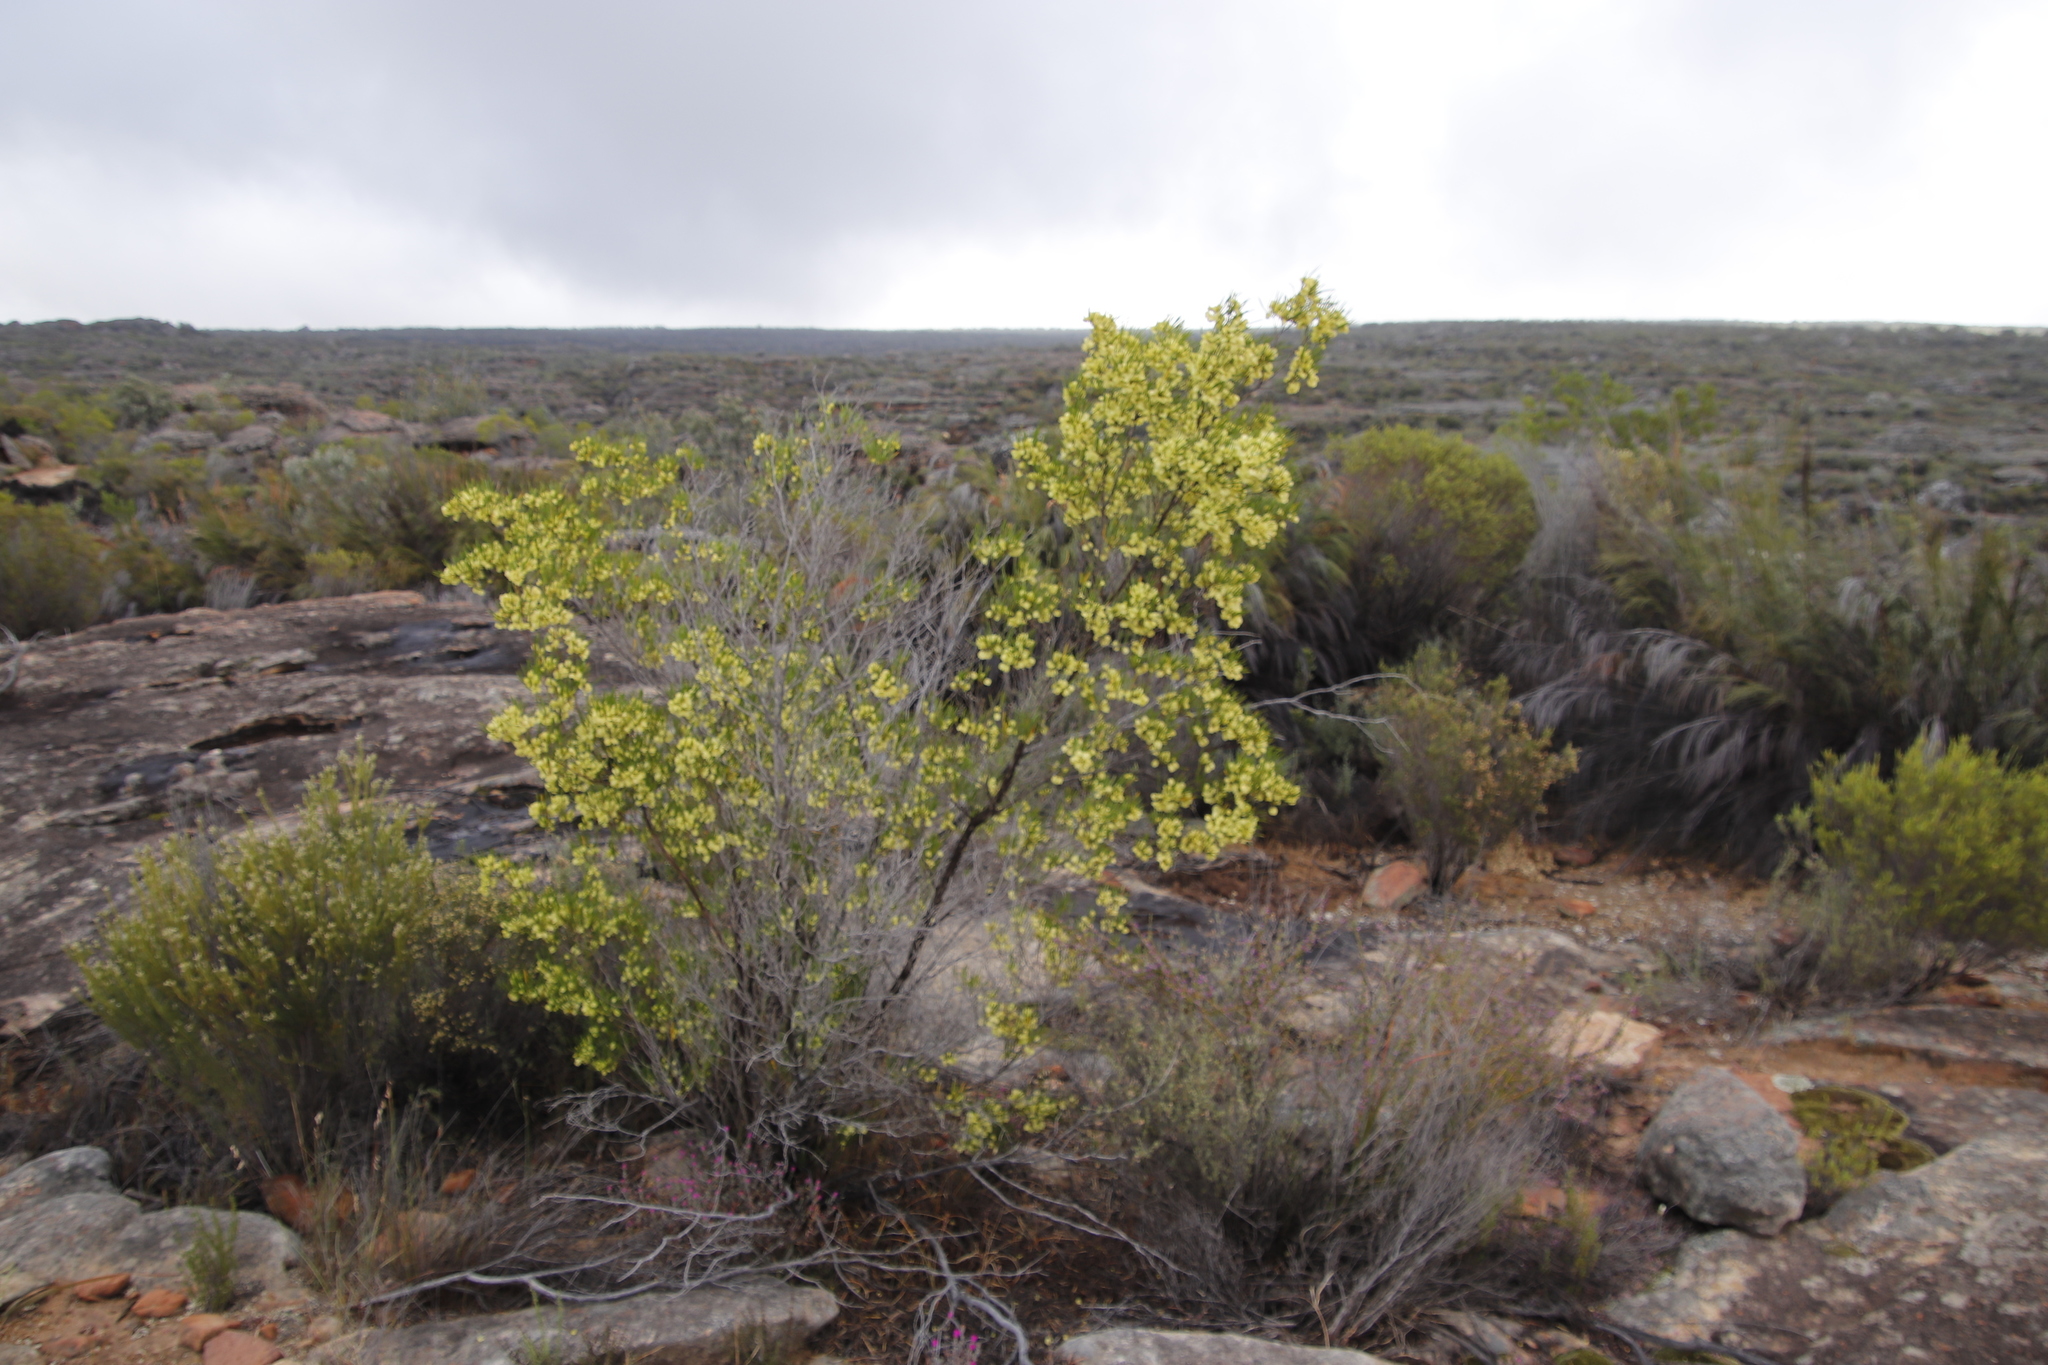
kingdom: Plantae
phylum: Tracheophyta
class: Magnoliopsida
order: Sapindales
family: Sapindaceae
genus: Dodonaea
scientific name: Dodonaea viscosa
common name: Hopbush
